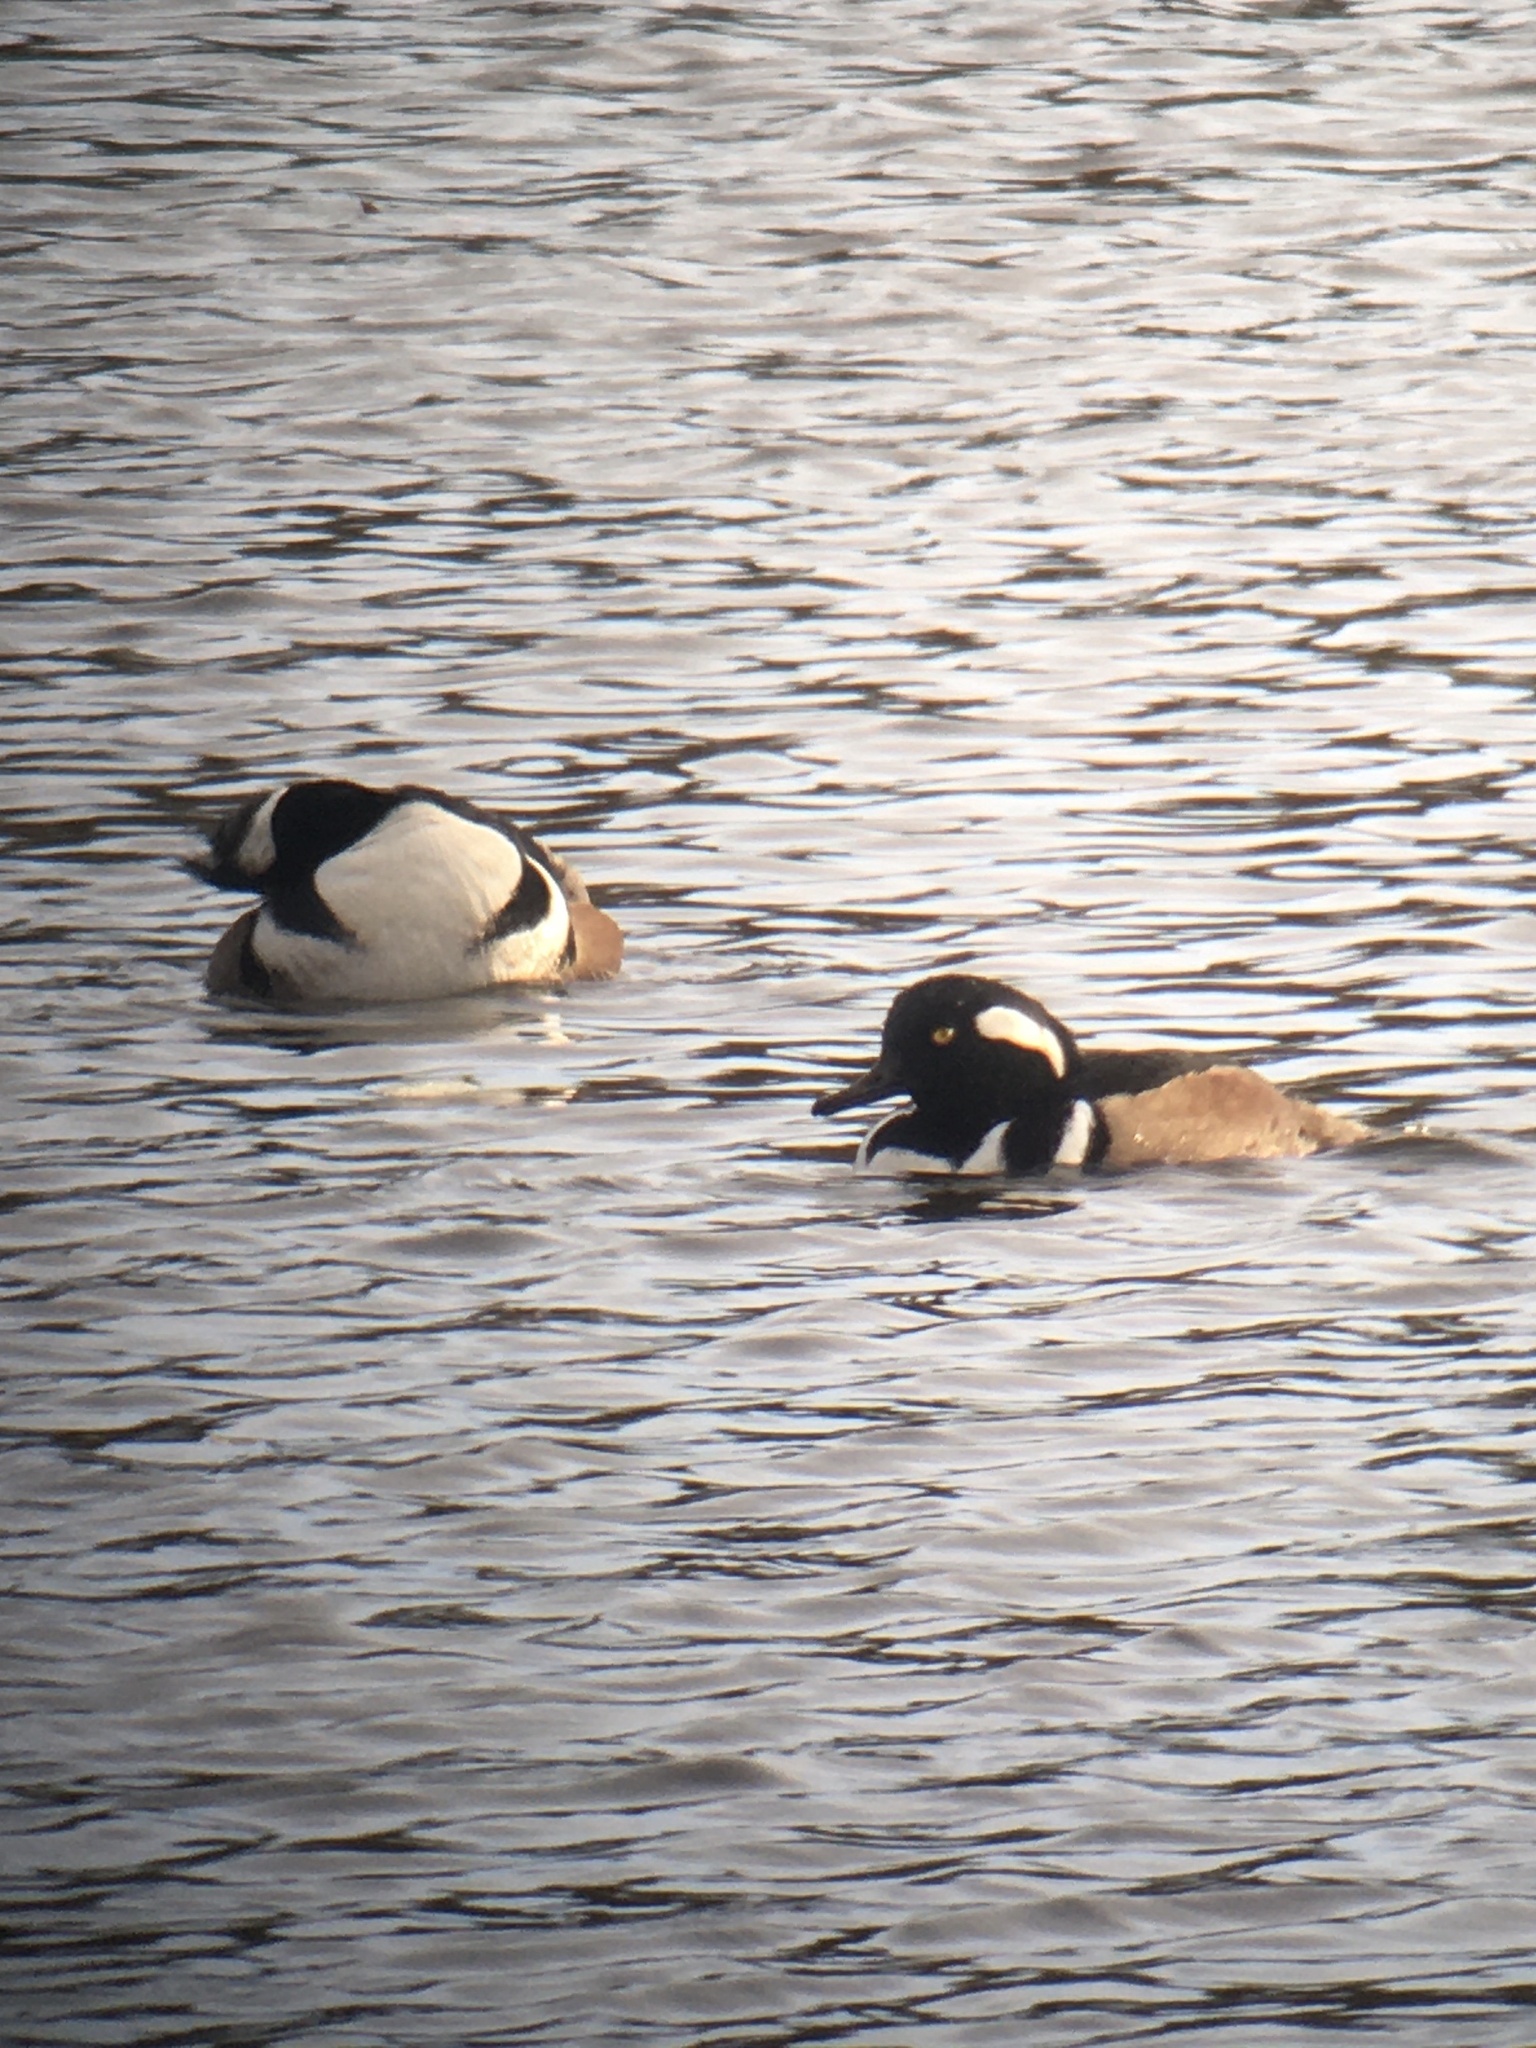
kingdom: Animalia
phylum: Chordata
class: Aves
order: Anseriformes
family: Anatidae
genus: Lophodytes
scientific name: Lophodytes cucullatus
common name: Hooded merganser
